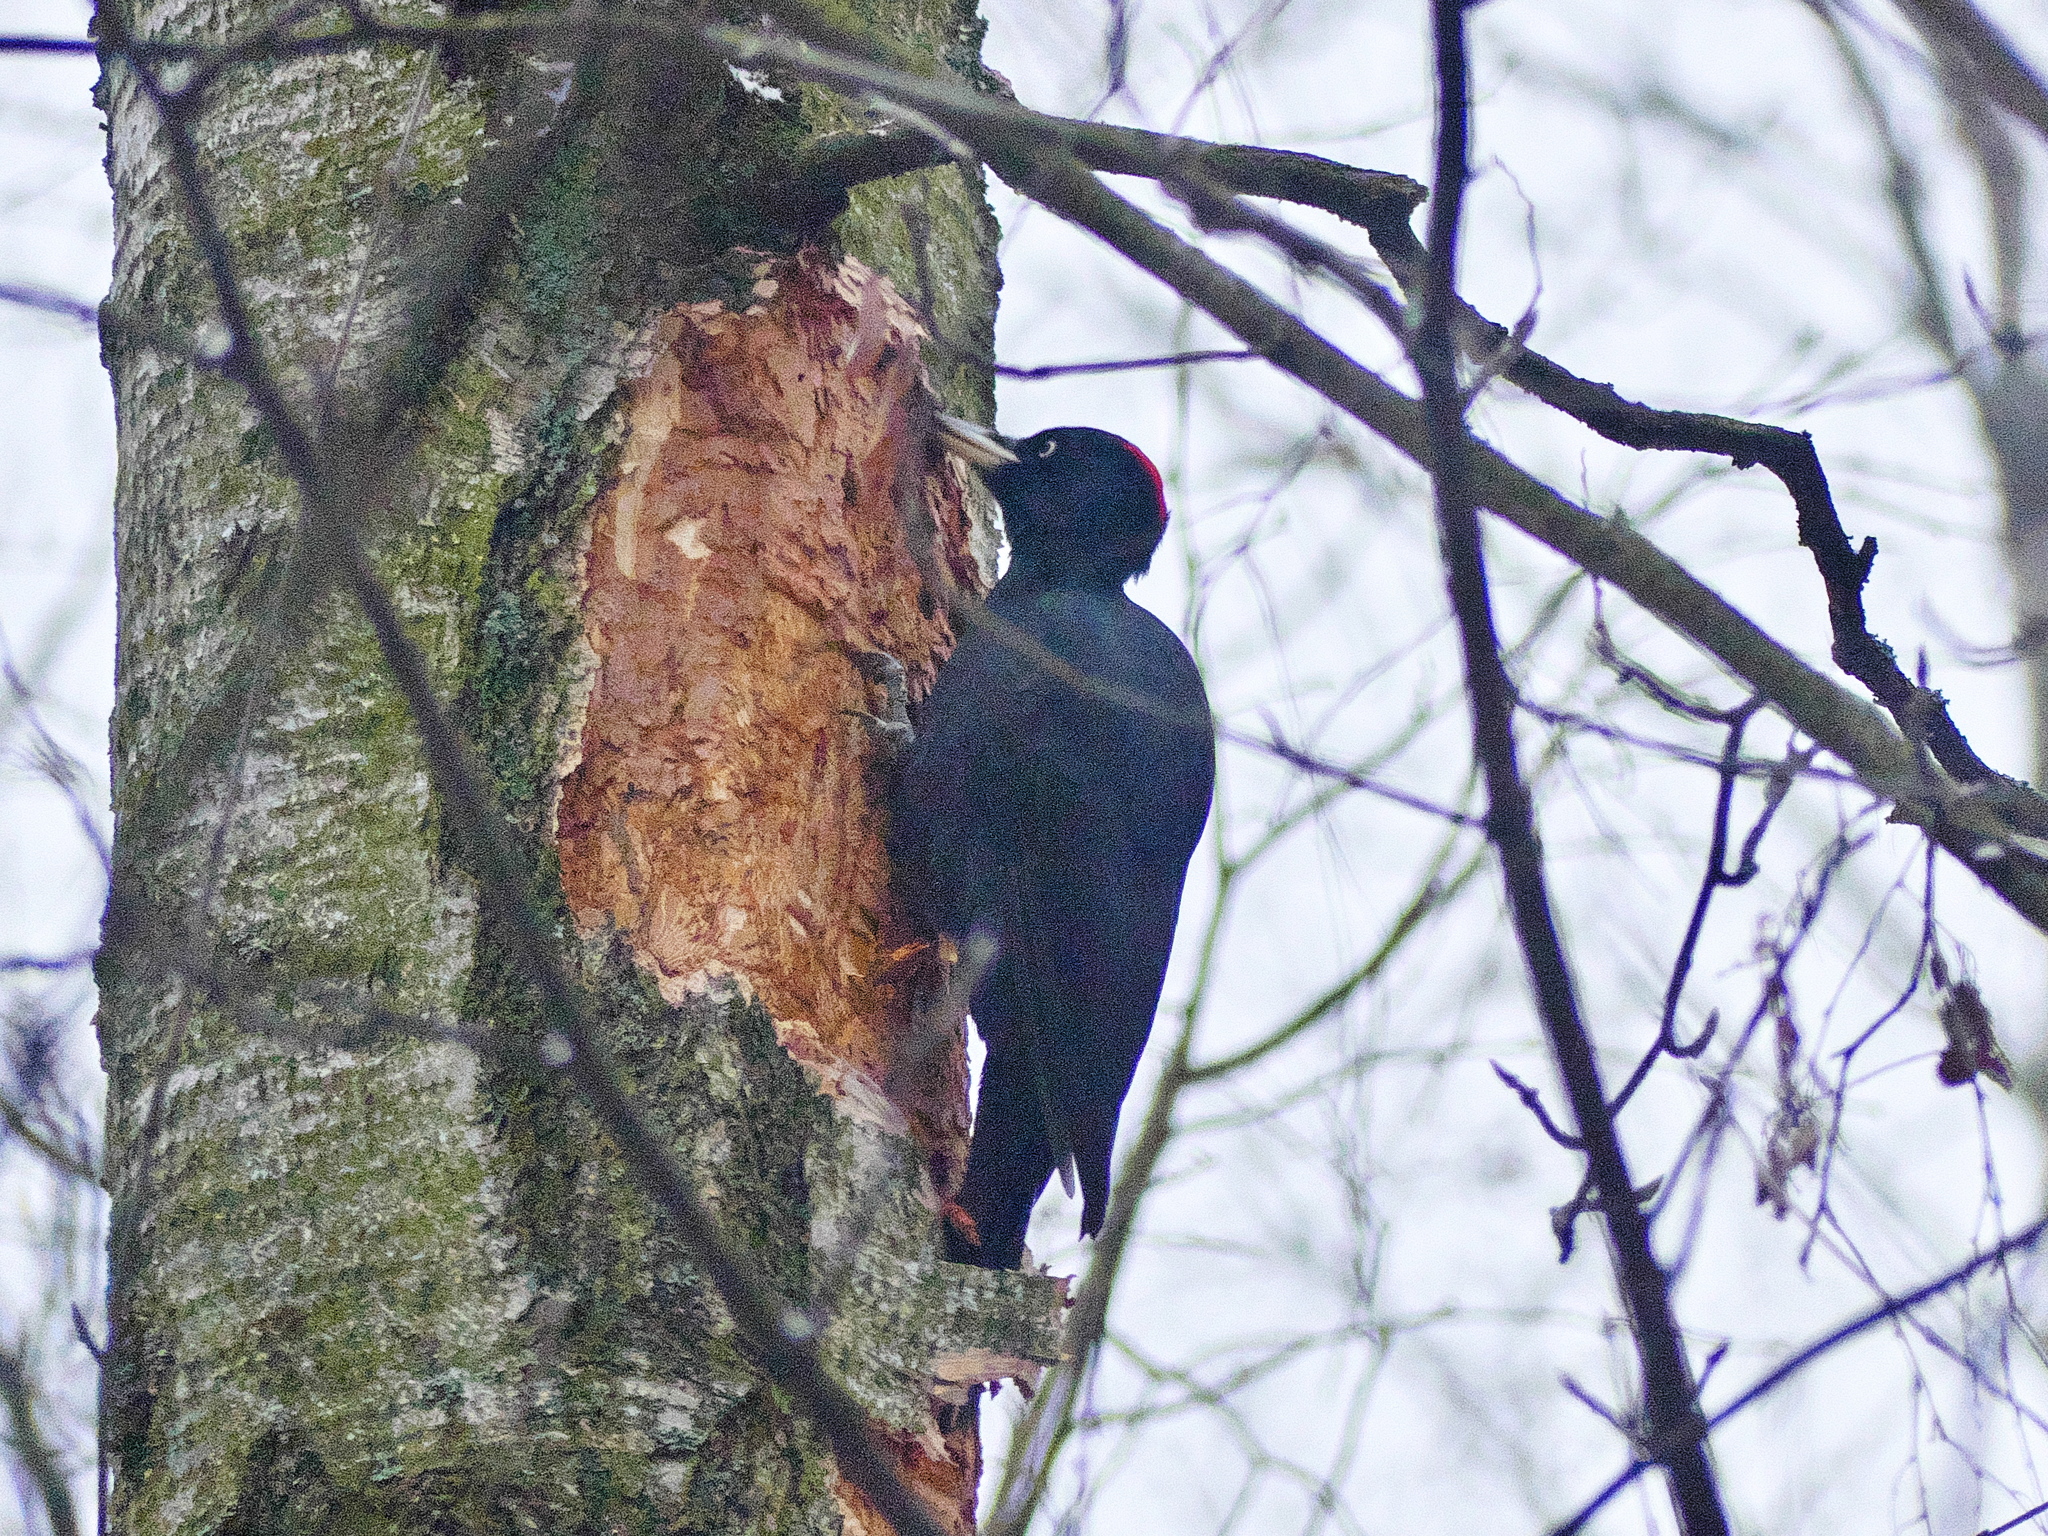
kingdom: Animalia
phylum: Chordata
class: Aves
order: Piciformes
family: Picidae
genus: Dryocopus
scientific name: Dryocopus martius
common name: Black woodpecker
